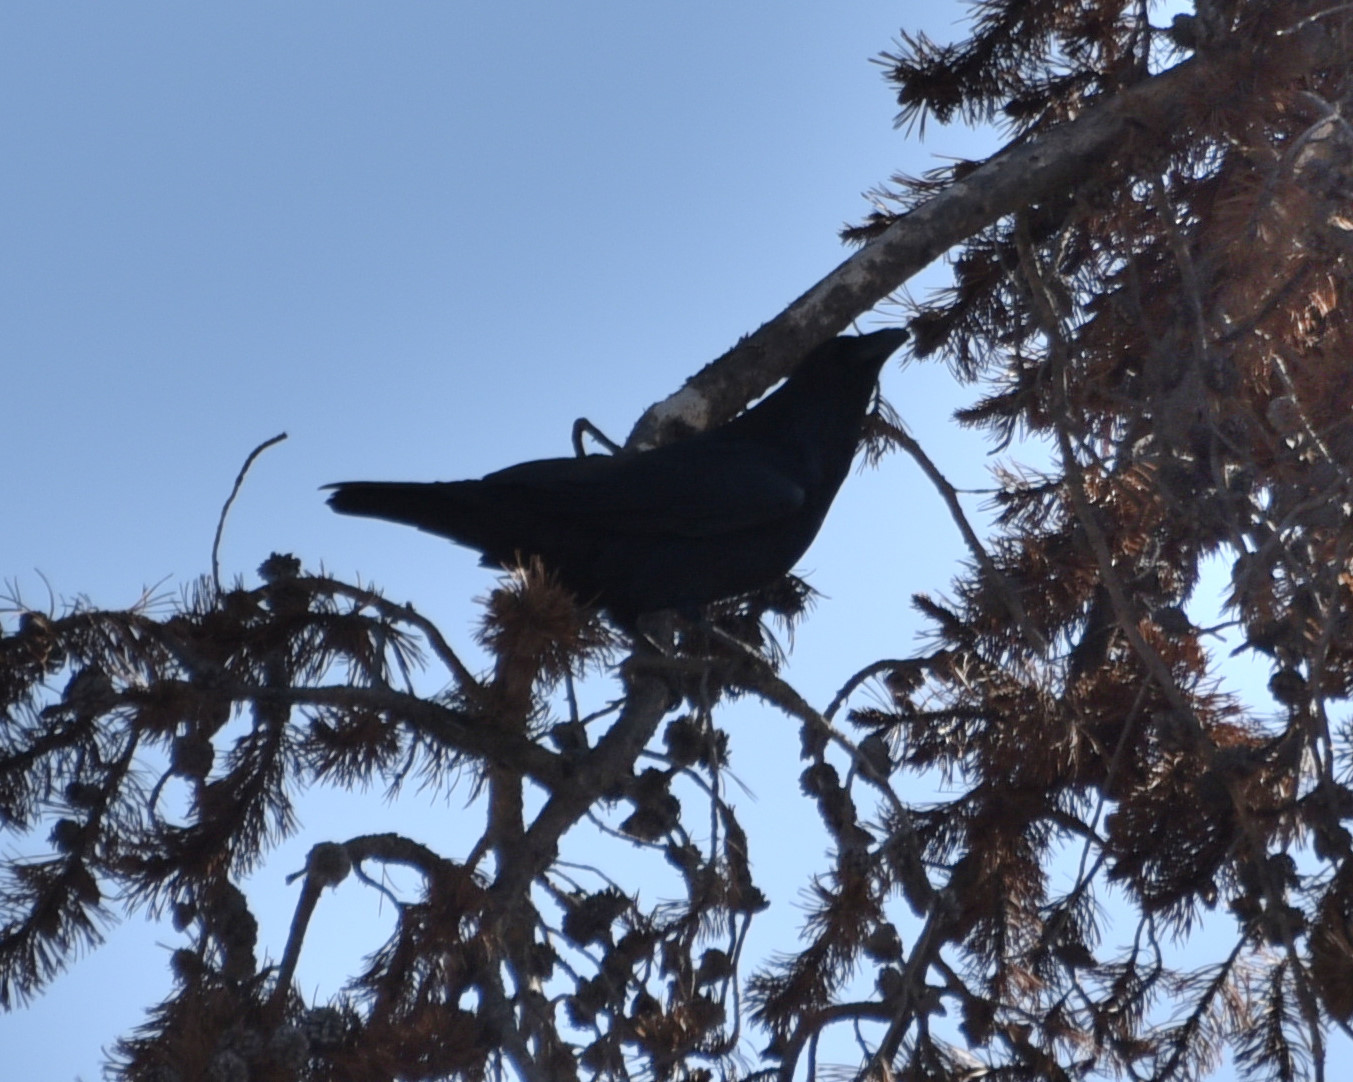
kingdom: Animalia
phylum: Chordata
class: Aves
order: Passeriformes
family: Corvidae
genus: Corvus
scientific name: Corvus corax
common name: Common raven
